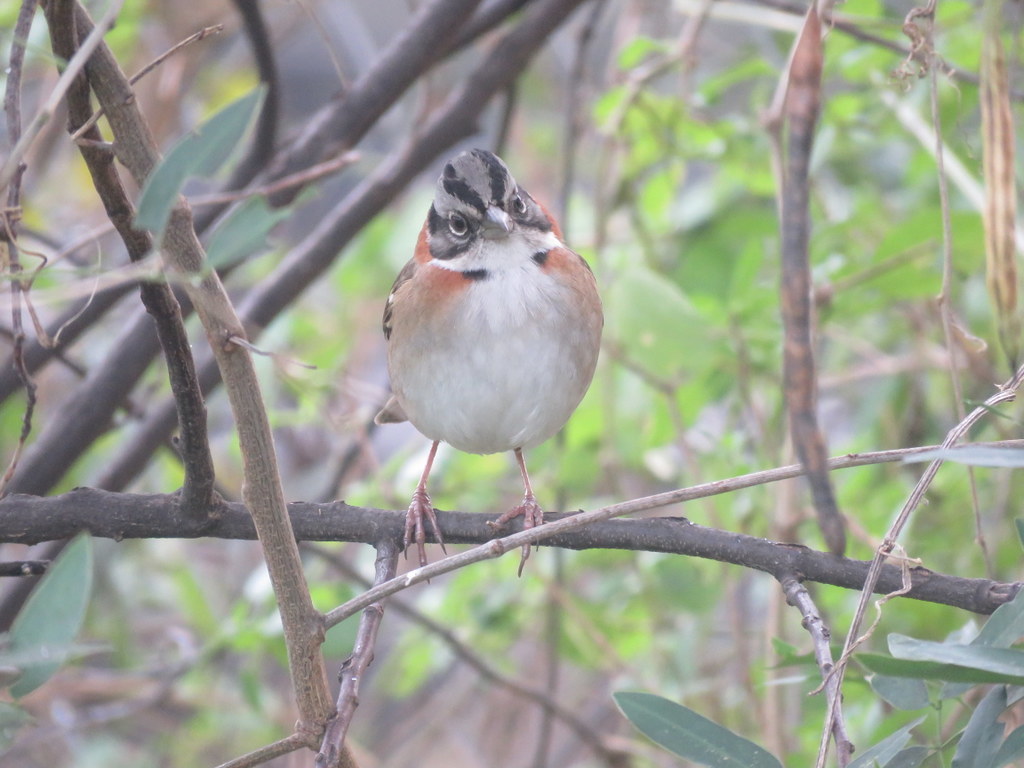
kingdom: Animalia
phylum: Chordata
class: Aves
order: Passeriformes
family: Passerellidae
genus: Zonotrichia
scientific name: Zonotrichia capensis
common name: Rufous-collared sparrow
